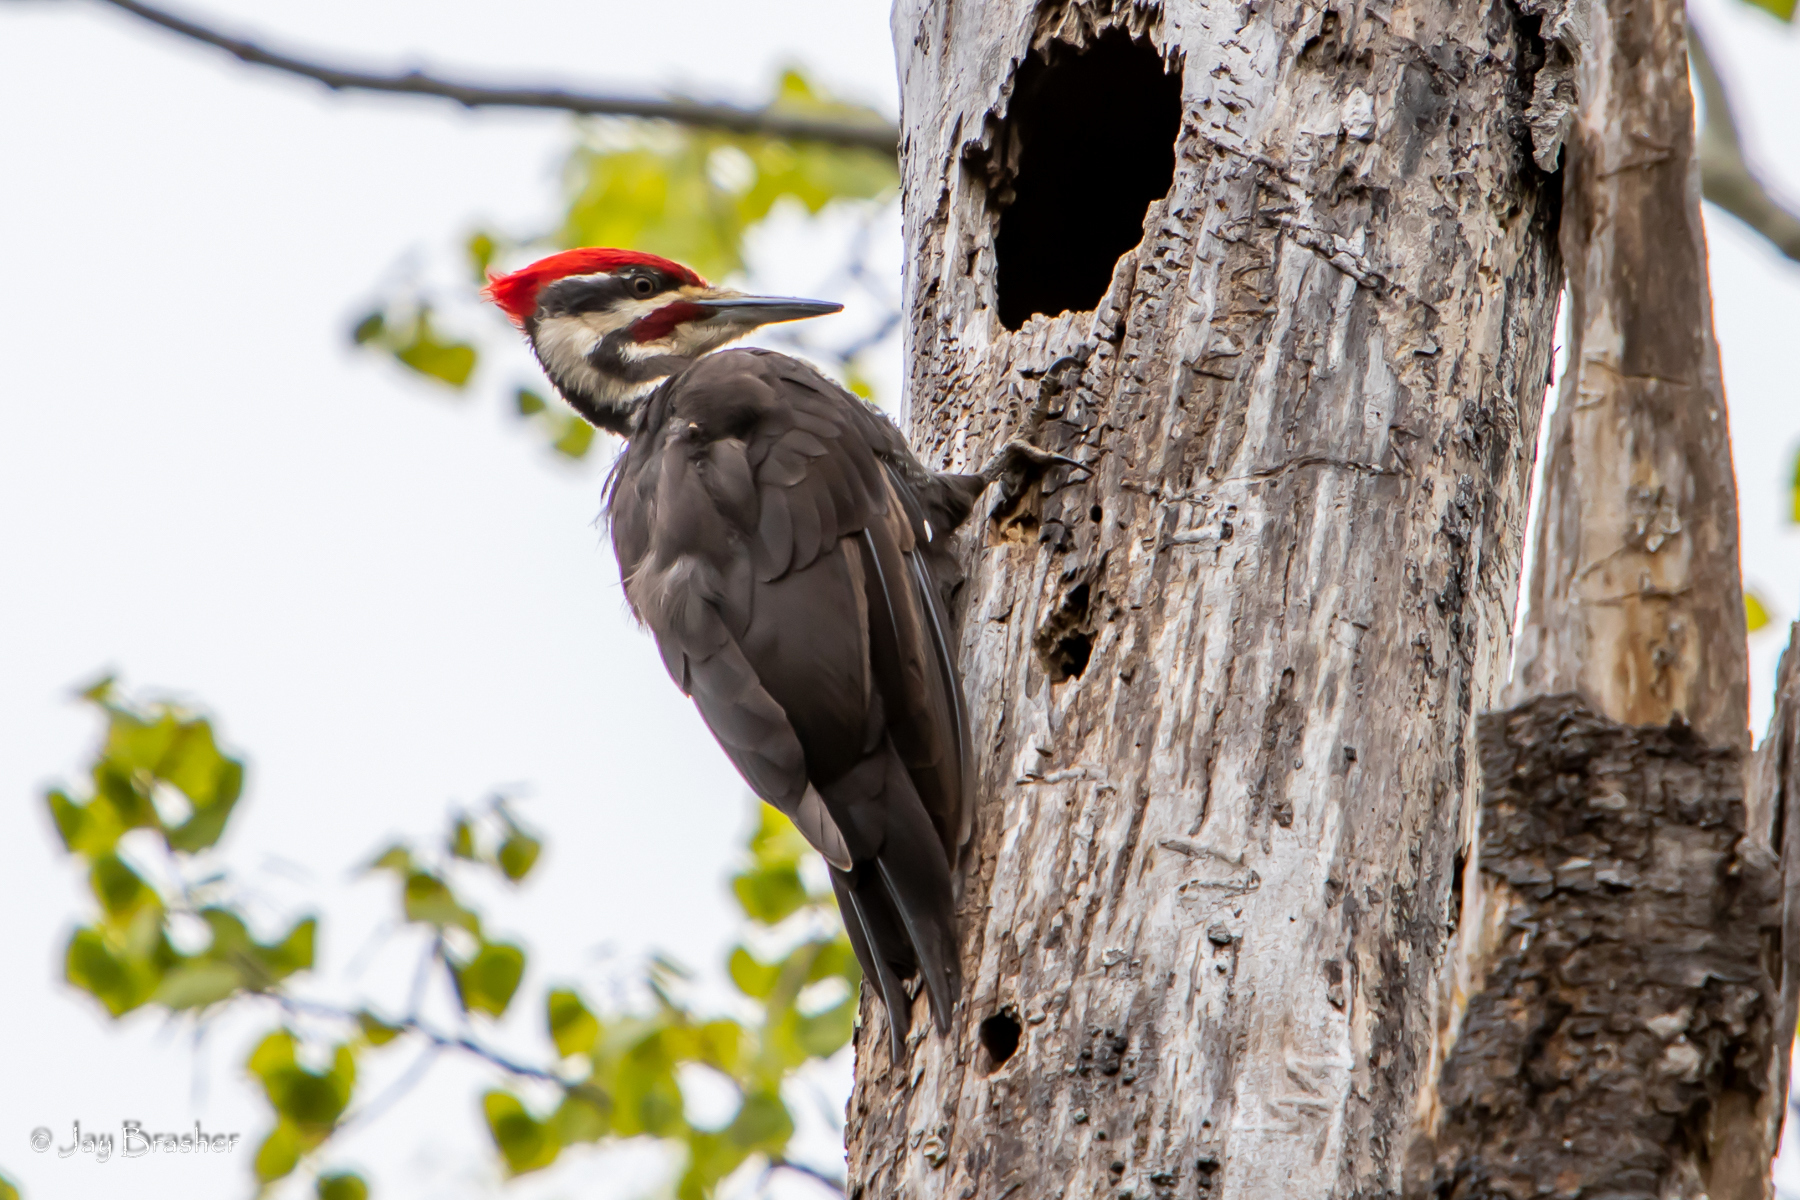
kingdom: Animalia
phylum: Chordata
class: Aves
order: Piciformes
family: Picidae
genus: Dryocopus
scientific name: Dryocopus pileatus
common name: Pileated woodpecker
